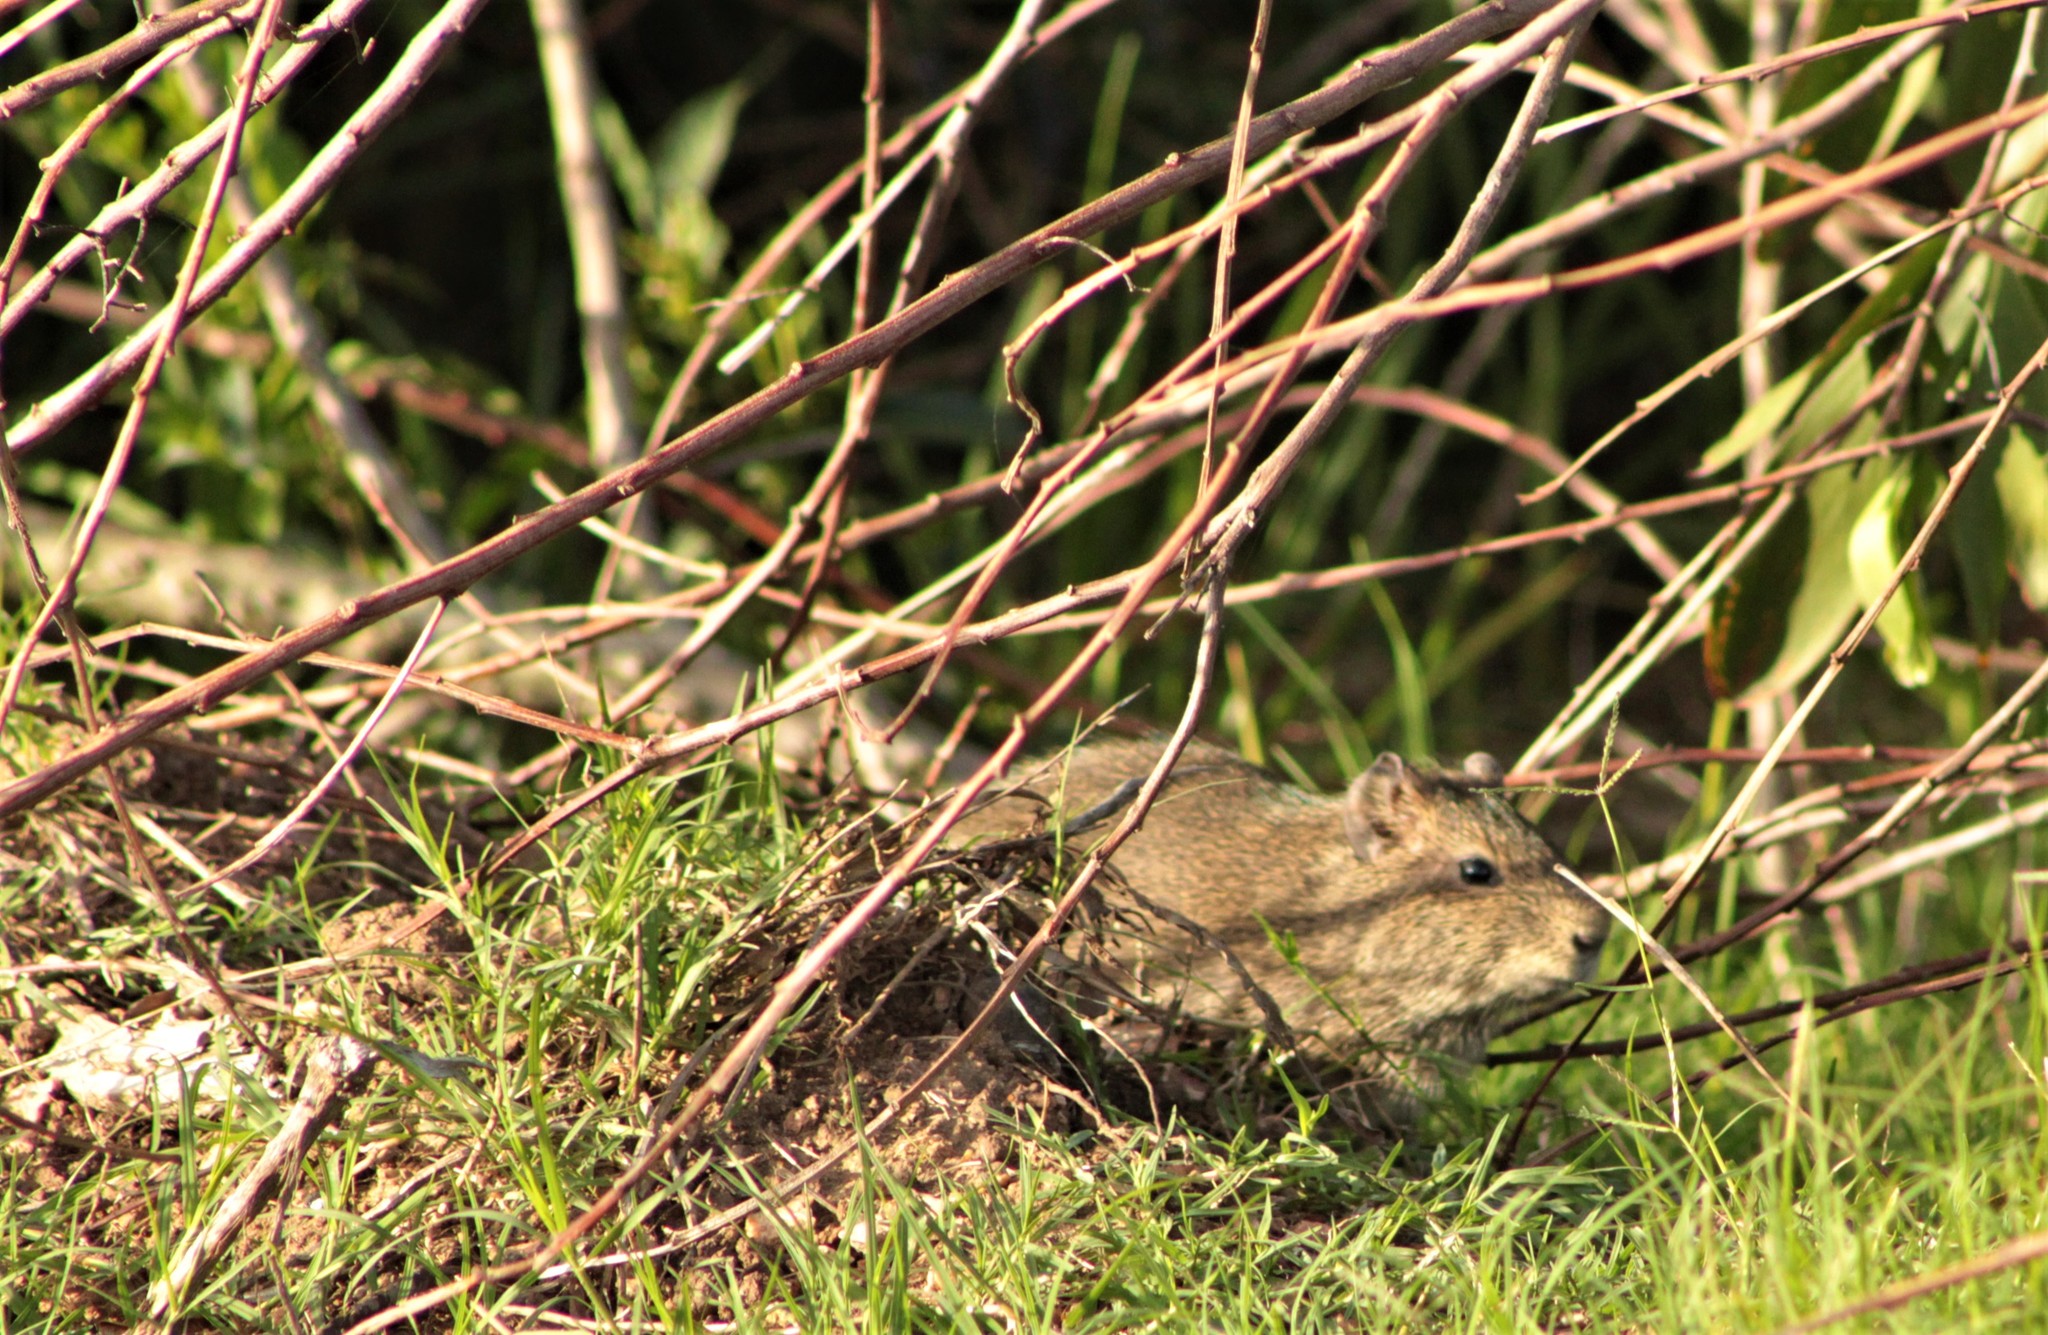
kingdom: Animalia
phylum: Chordata
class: Mammalia
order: Rodentia
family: Caviidae
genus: Cavia
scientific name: Cavia aperea
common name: Brazilian guinea pig
